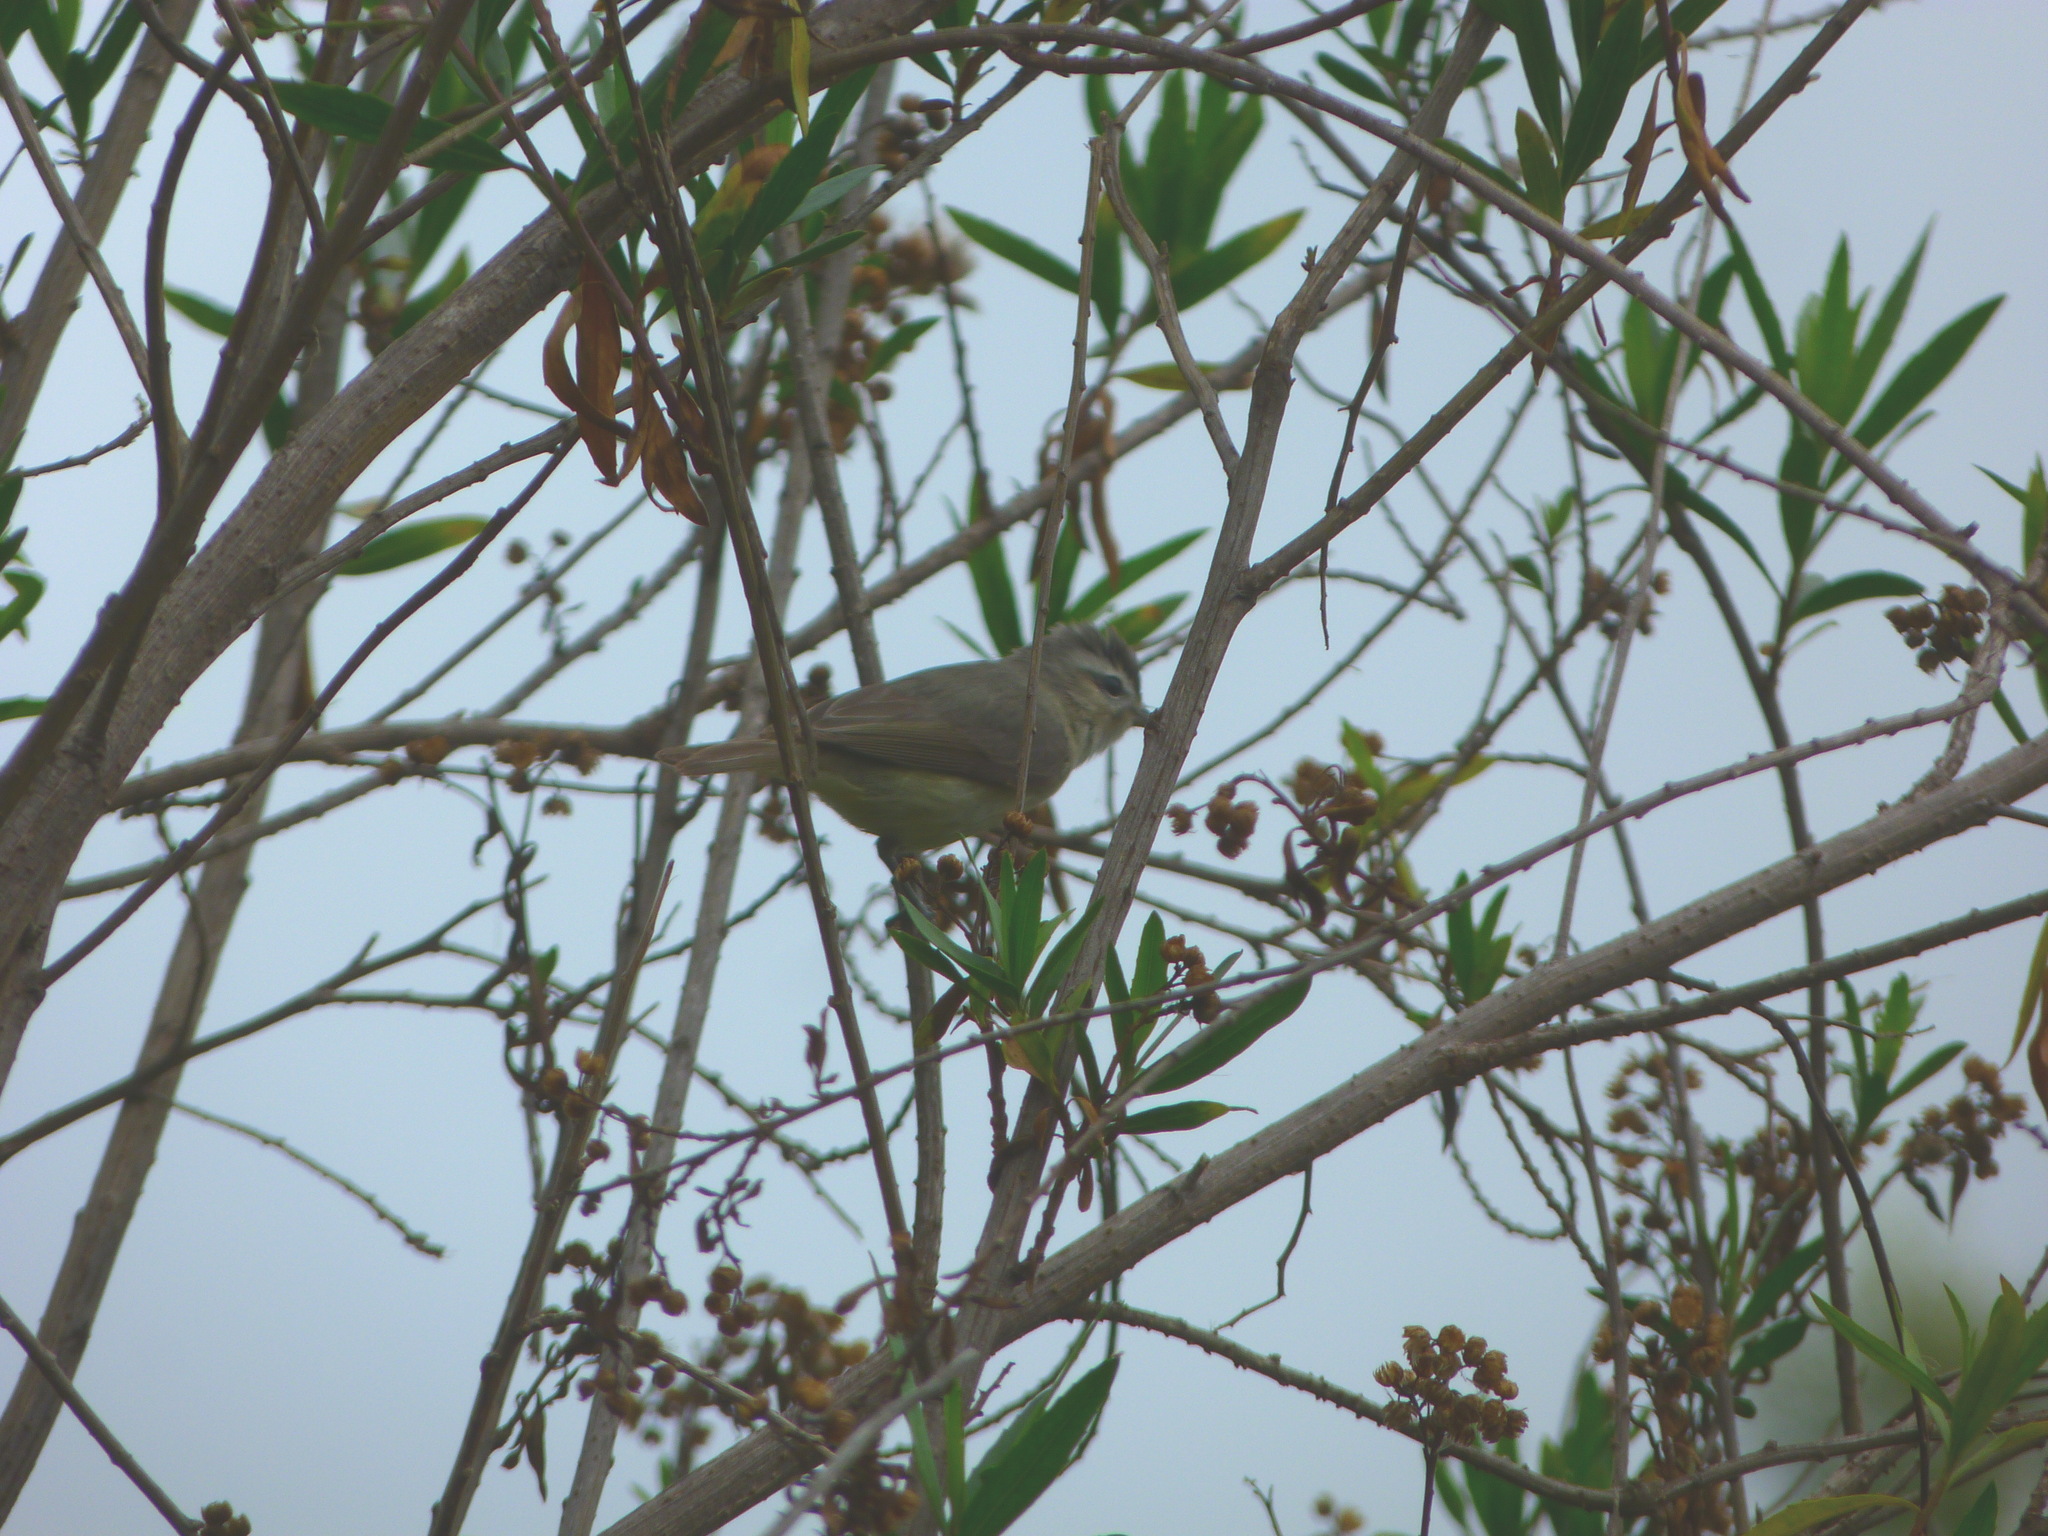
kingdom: Animalia
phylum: Chordata
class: Aves
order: Passeriformes
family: Vireonidae
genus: Vireo
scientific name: Vireo gilvus
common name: Warbling vireo
